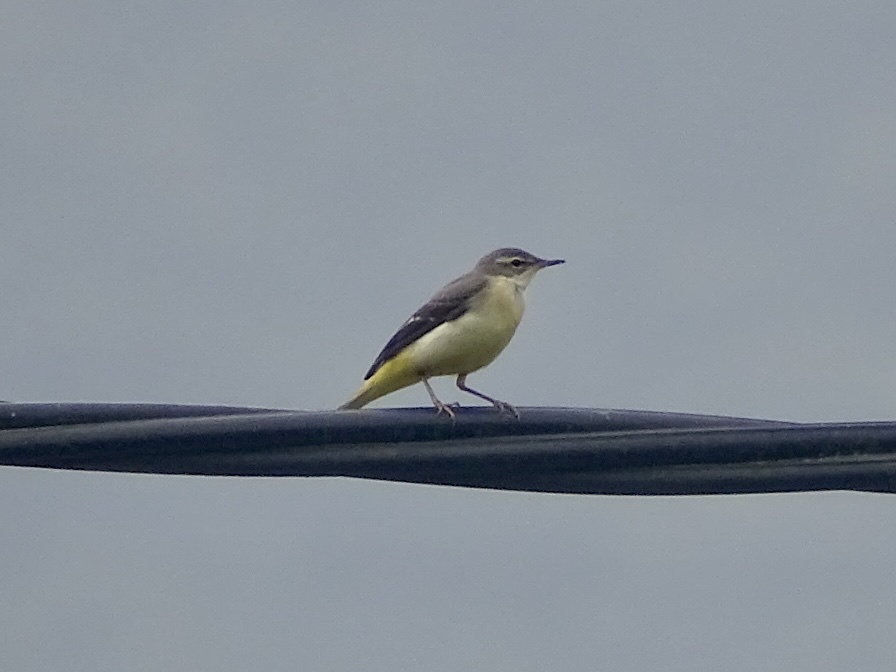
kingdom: Animalia
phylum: Chordata
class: Aves
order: Passeriformes
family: Motacillidae
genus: Motacilla
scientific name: Motacilla cinerea
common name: Grey wagtail
